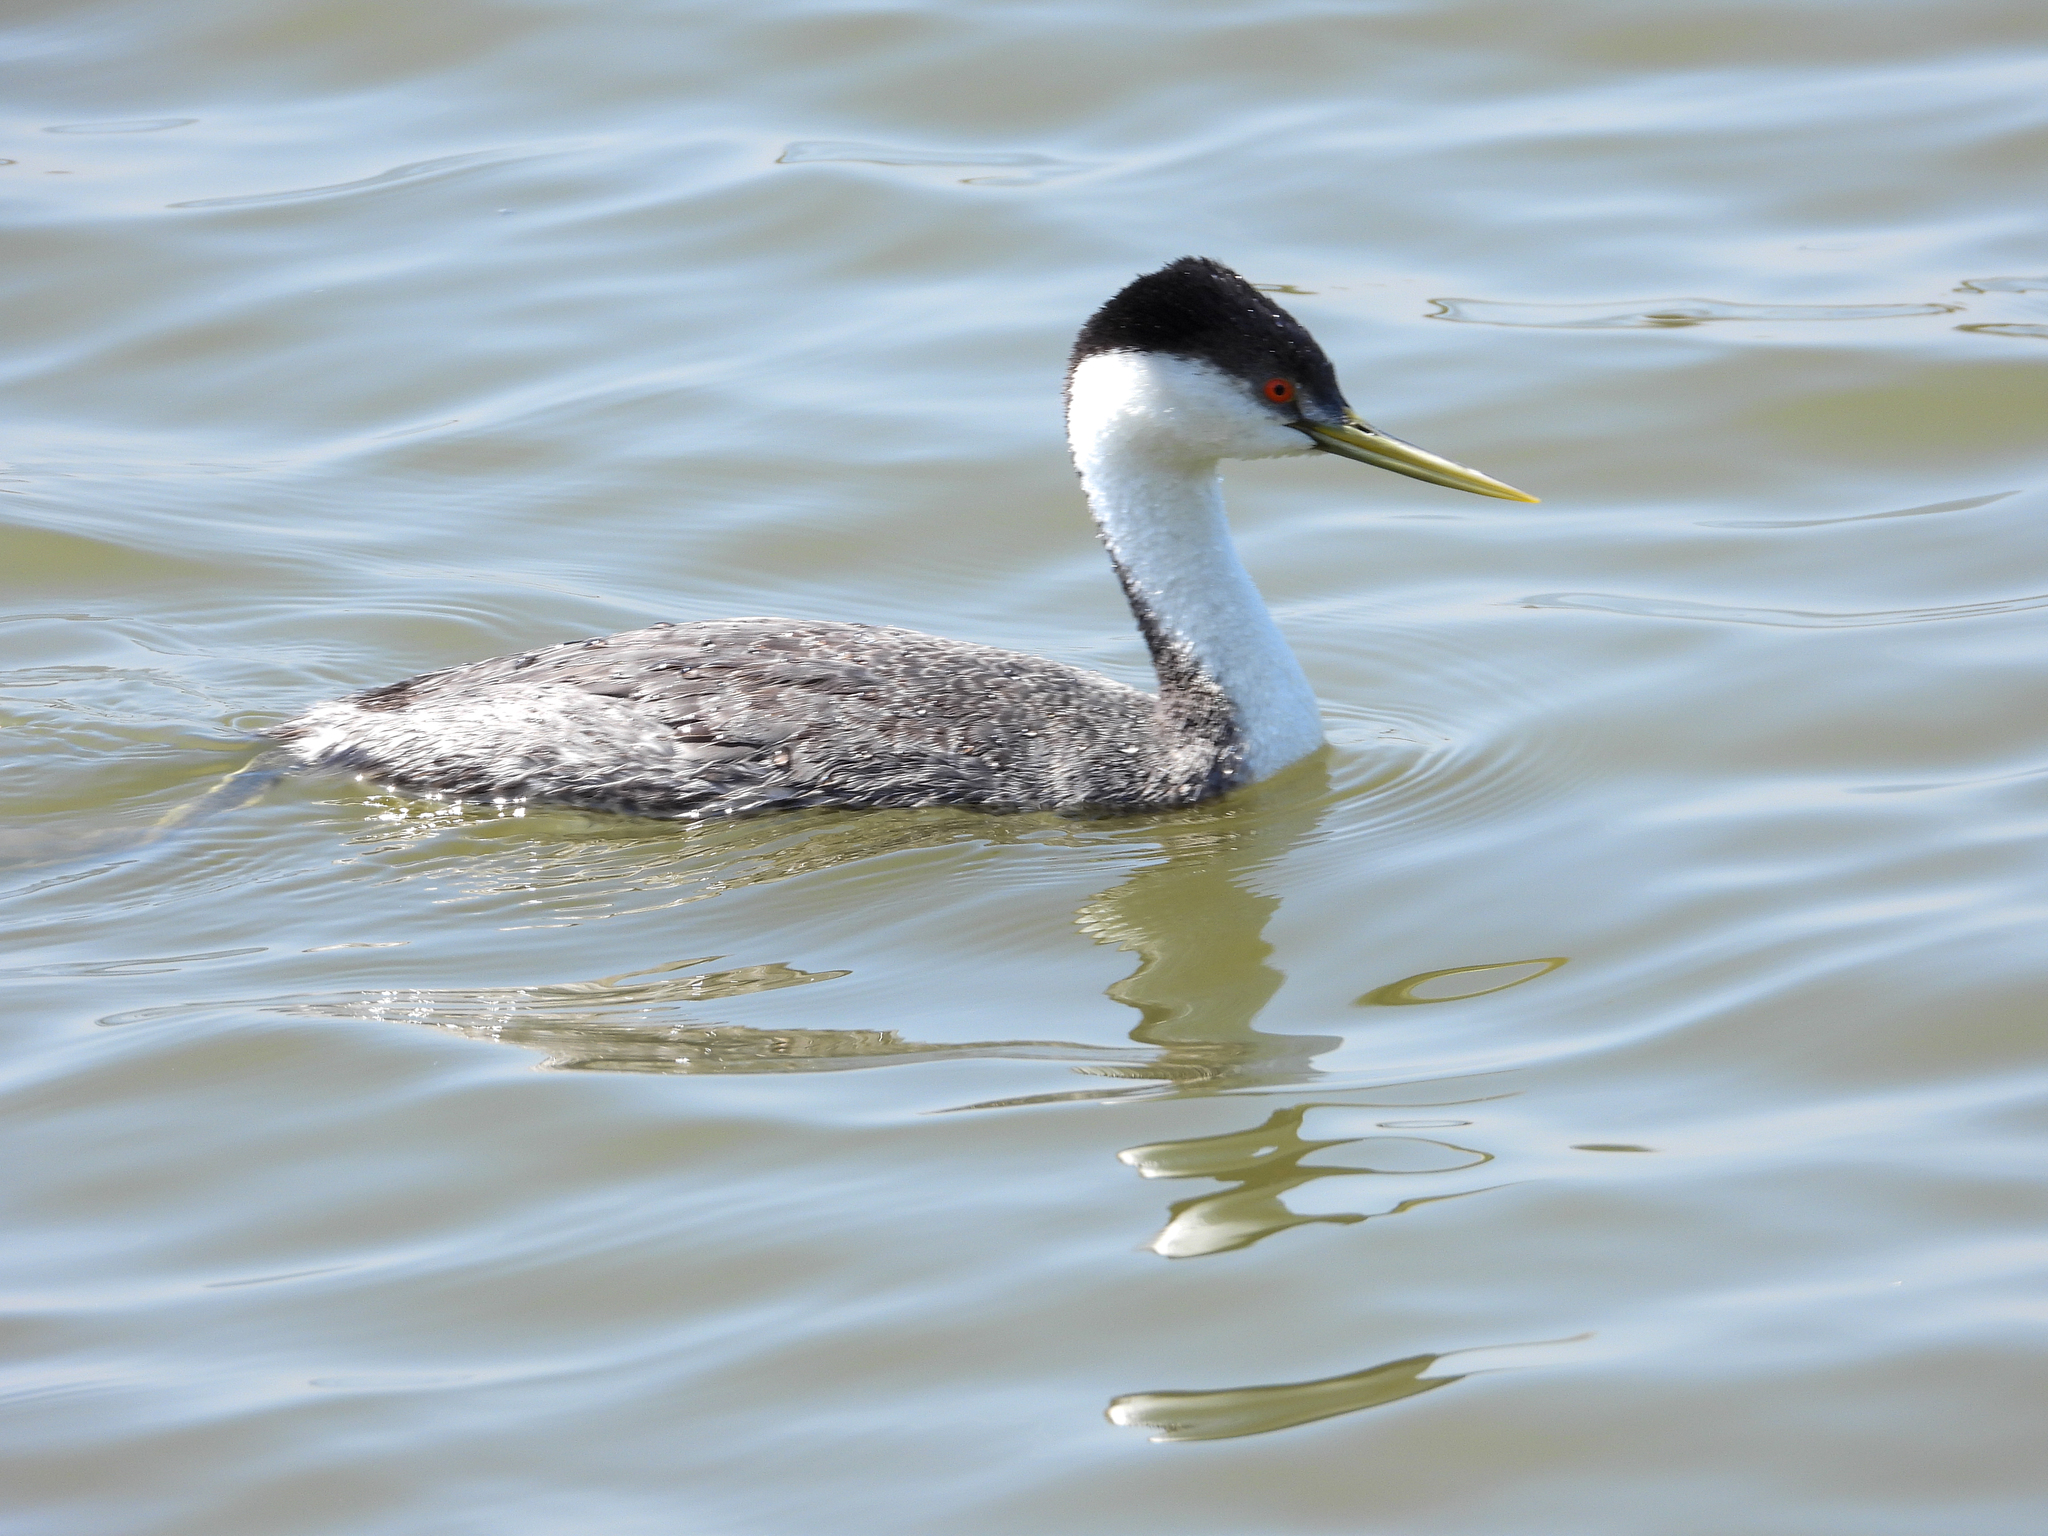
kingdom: Animalia
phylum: Chordata
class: Aves
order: Podicipediformes
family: Podicipedidae
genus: Aechmophorus
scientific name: Aechmophorus occidentalis
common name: Western grebe
